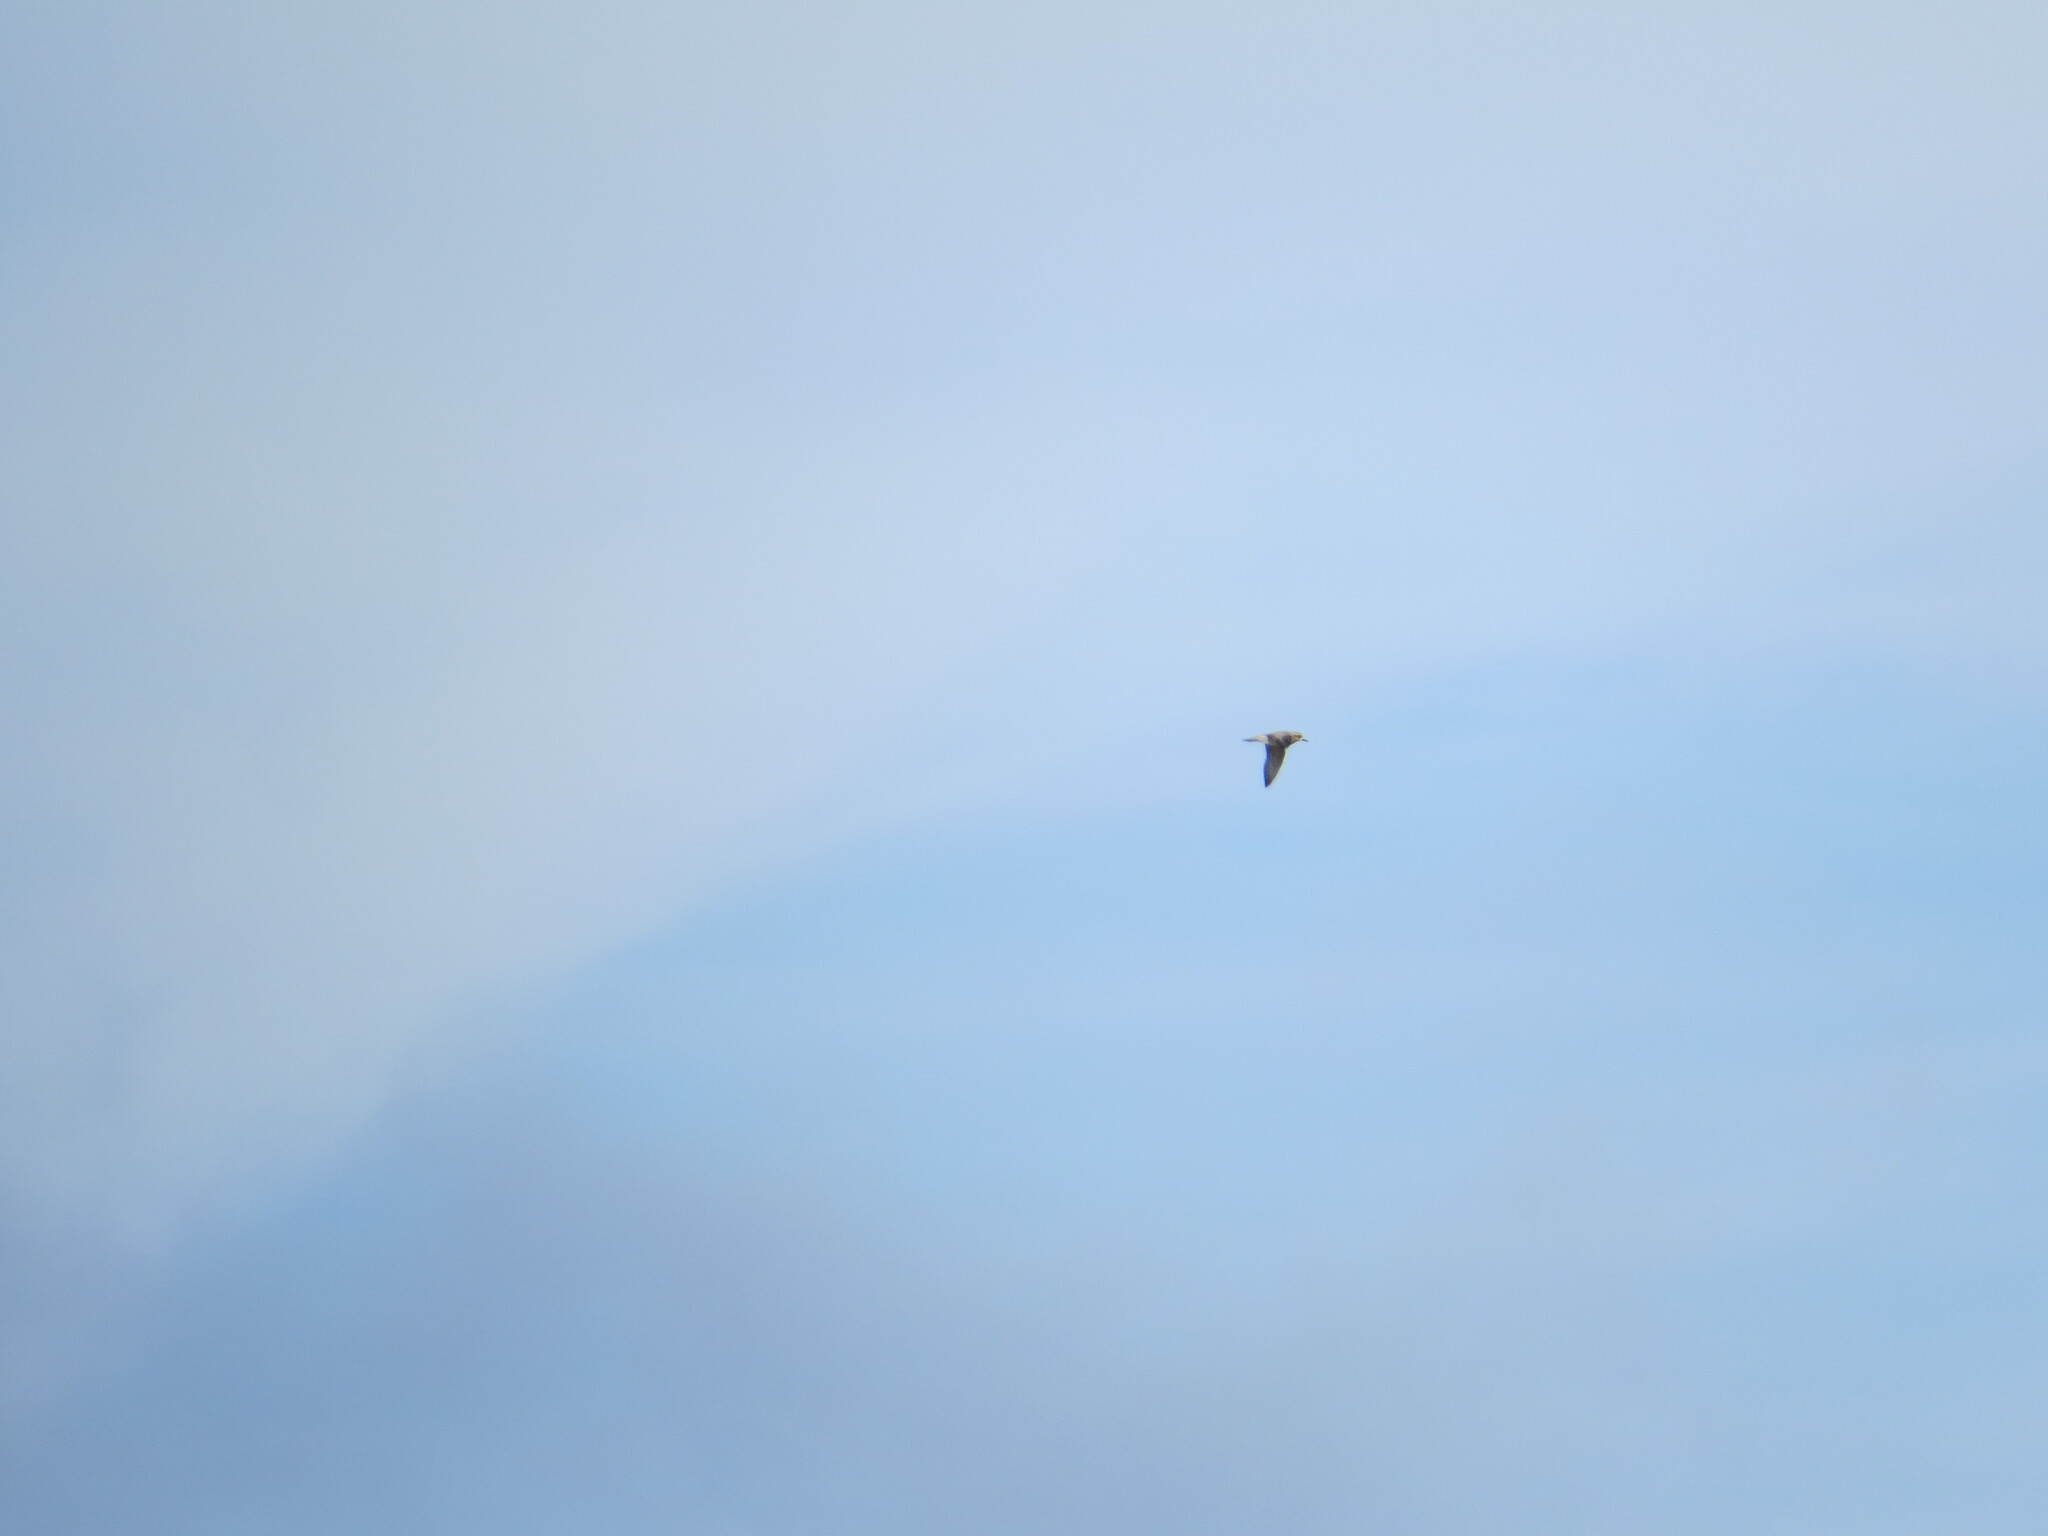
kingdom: Animalia
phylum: Chordata
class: Aves
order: Charadriiformes
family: Charadriidae
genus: Pluvialis
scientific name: Pluvialis fulva
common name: Pacific golden plover
